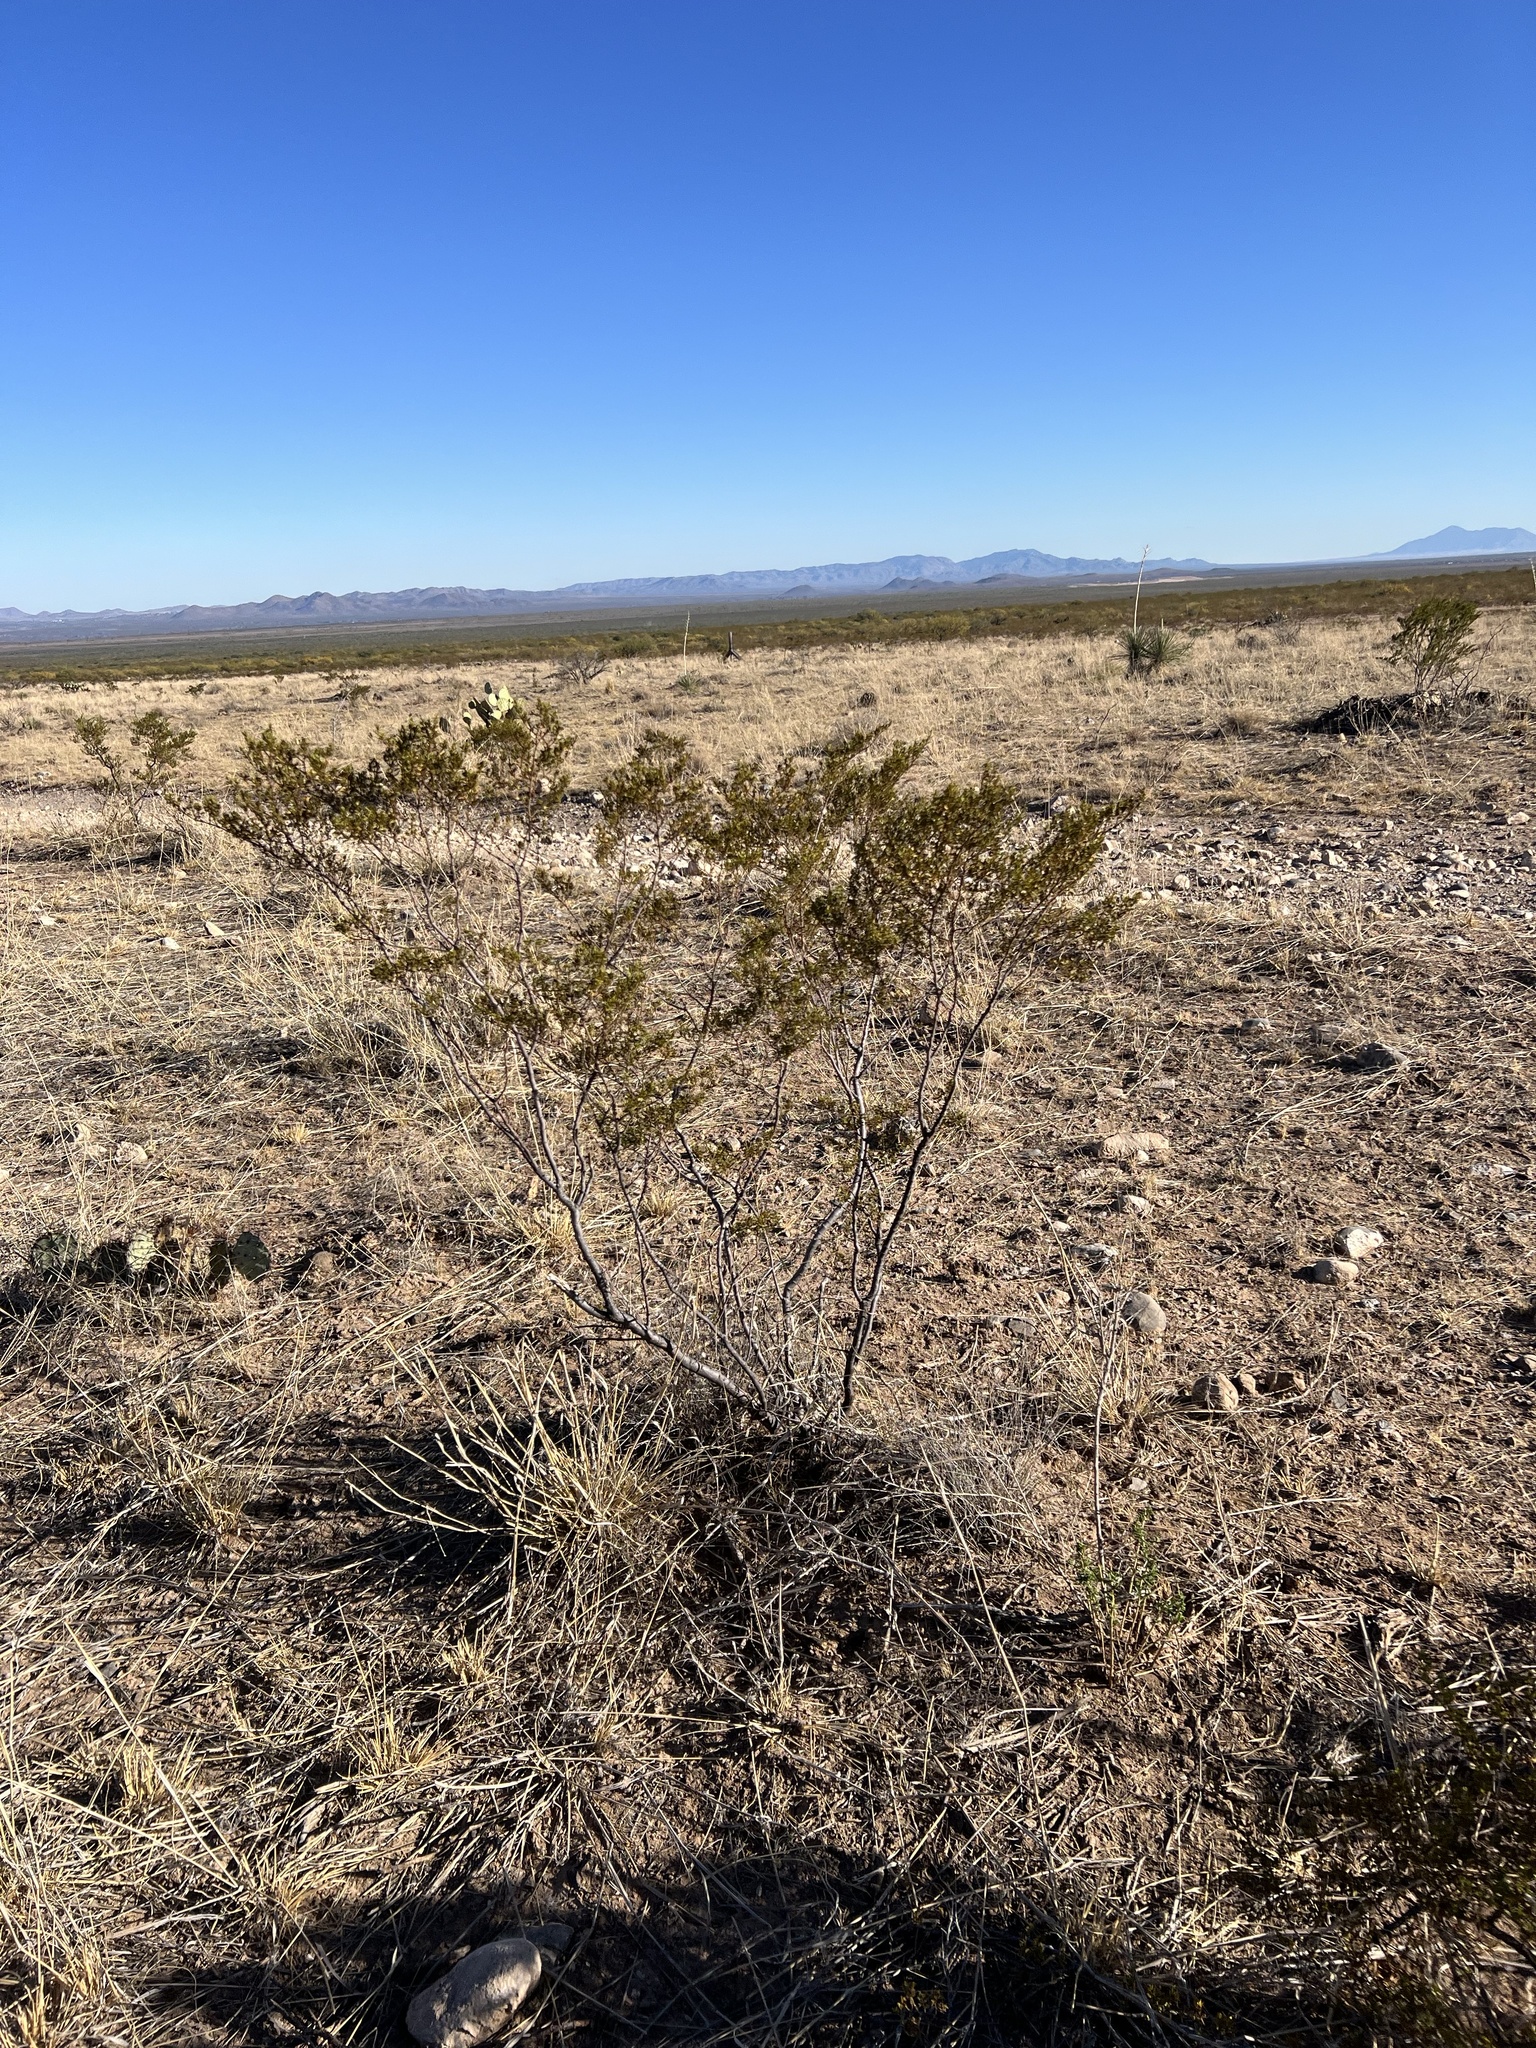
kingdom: Plantae
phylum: Tracheophyta
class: Magnoliopsida
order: Zygophyllales
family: Zygophyllaceae
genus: Larrea
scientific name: Larrea tridentata
